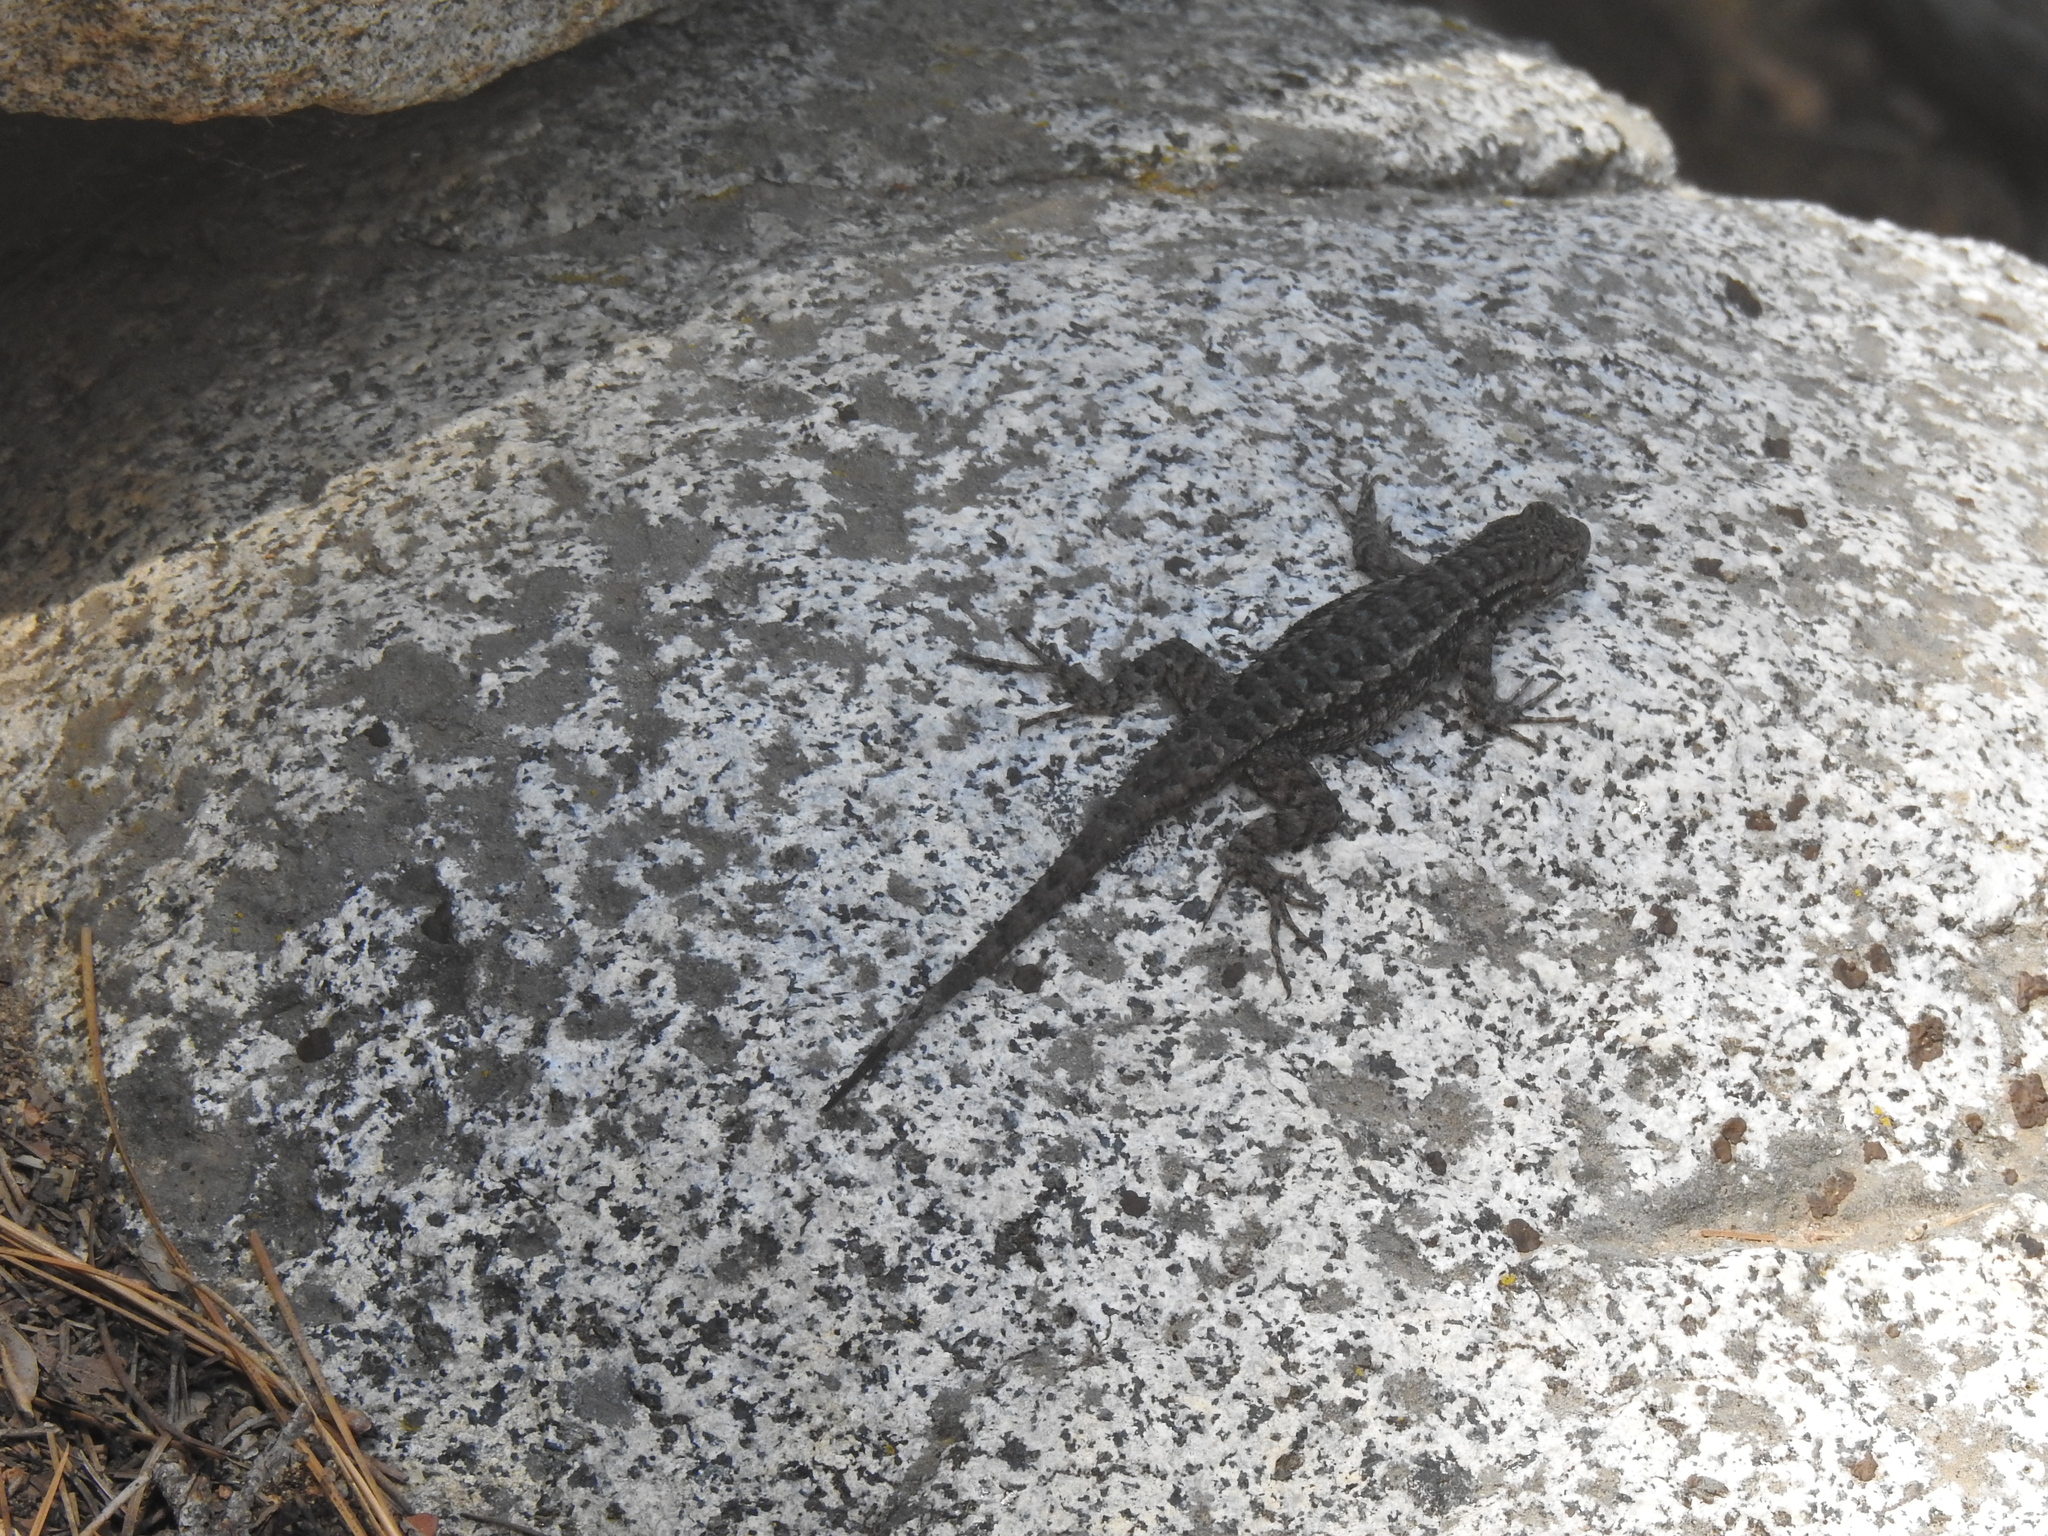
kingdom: Animalia
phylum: Chordata
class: Squamata
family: Phrynosomatidae
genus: Sceloporus
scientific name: Sceloporus occidentalis
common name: Western fence lizard
